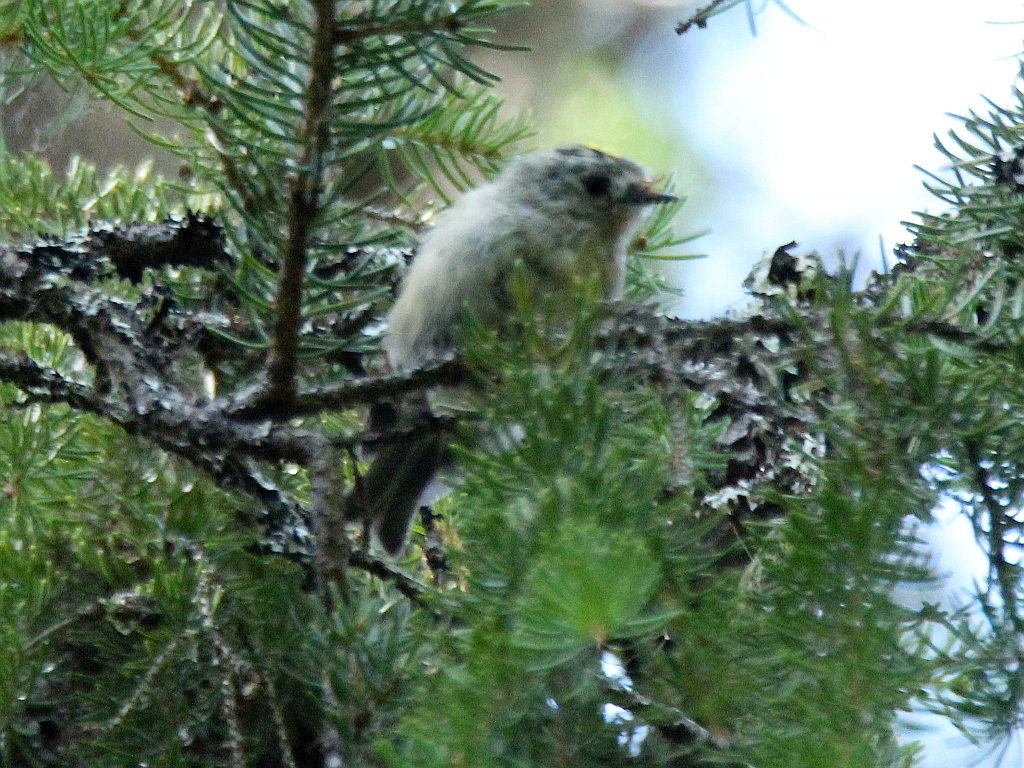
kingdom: Animalia
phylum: Chordata
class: Aves
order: Passeriformes
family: Regulidae
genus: Regulus
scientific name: Regulus regulus
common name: Goldcrest
